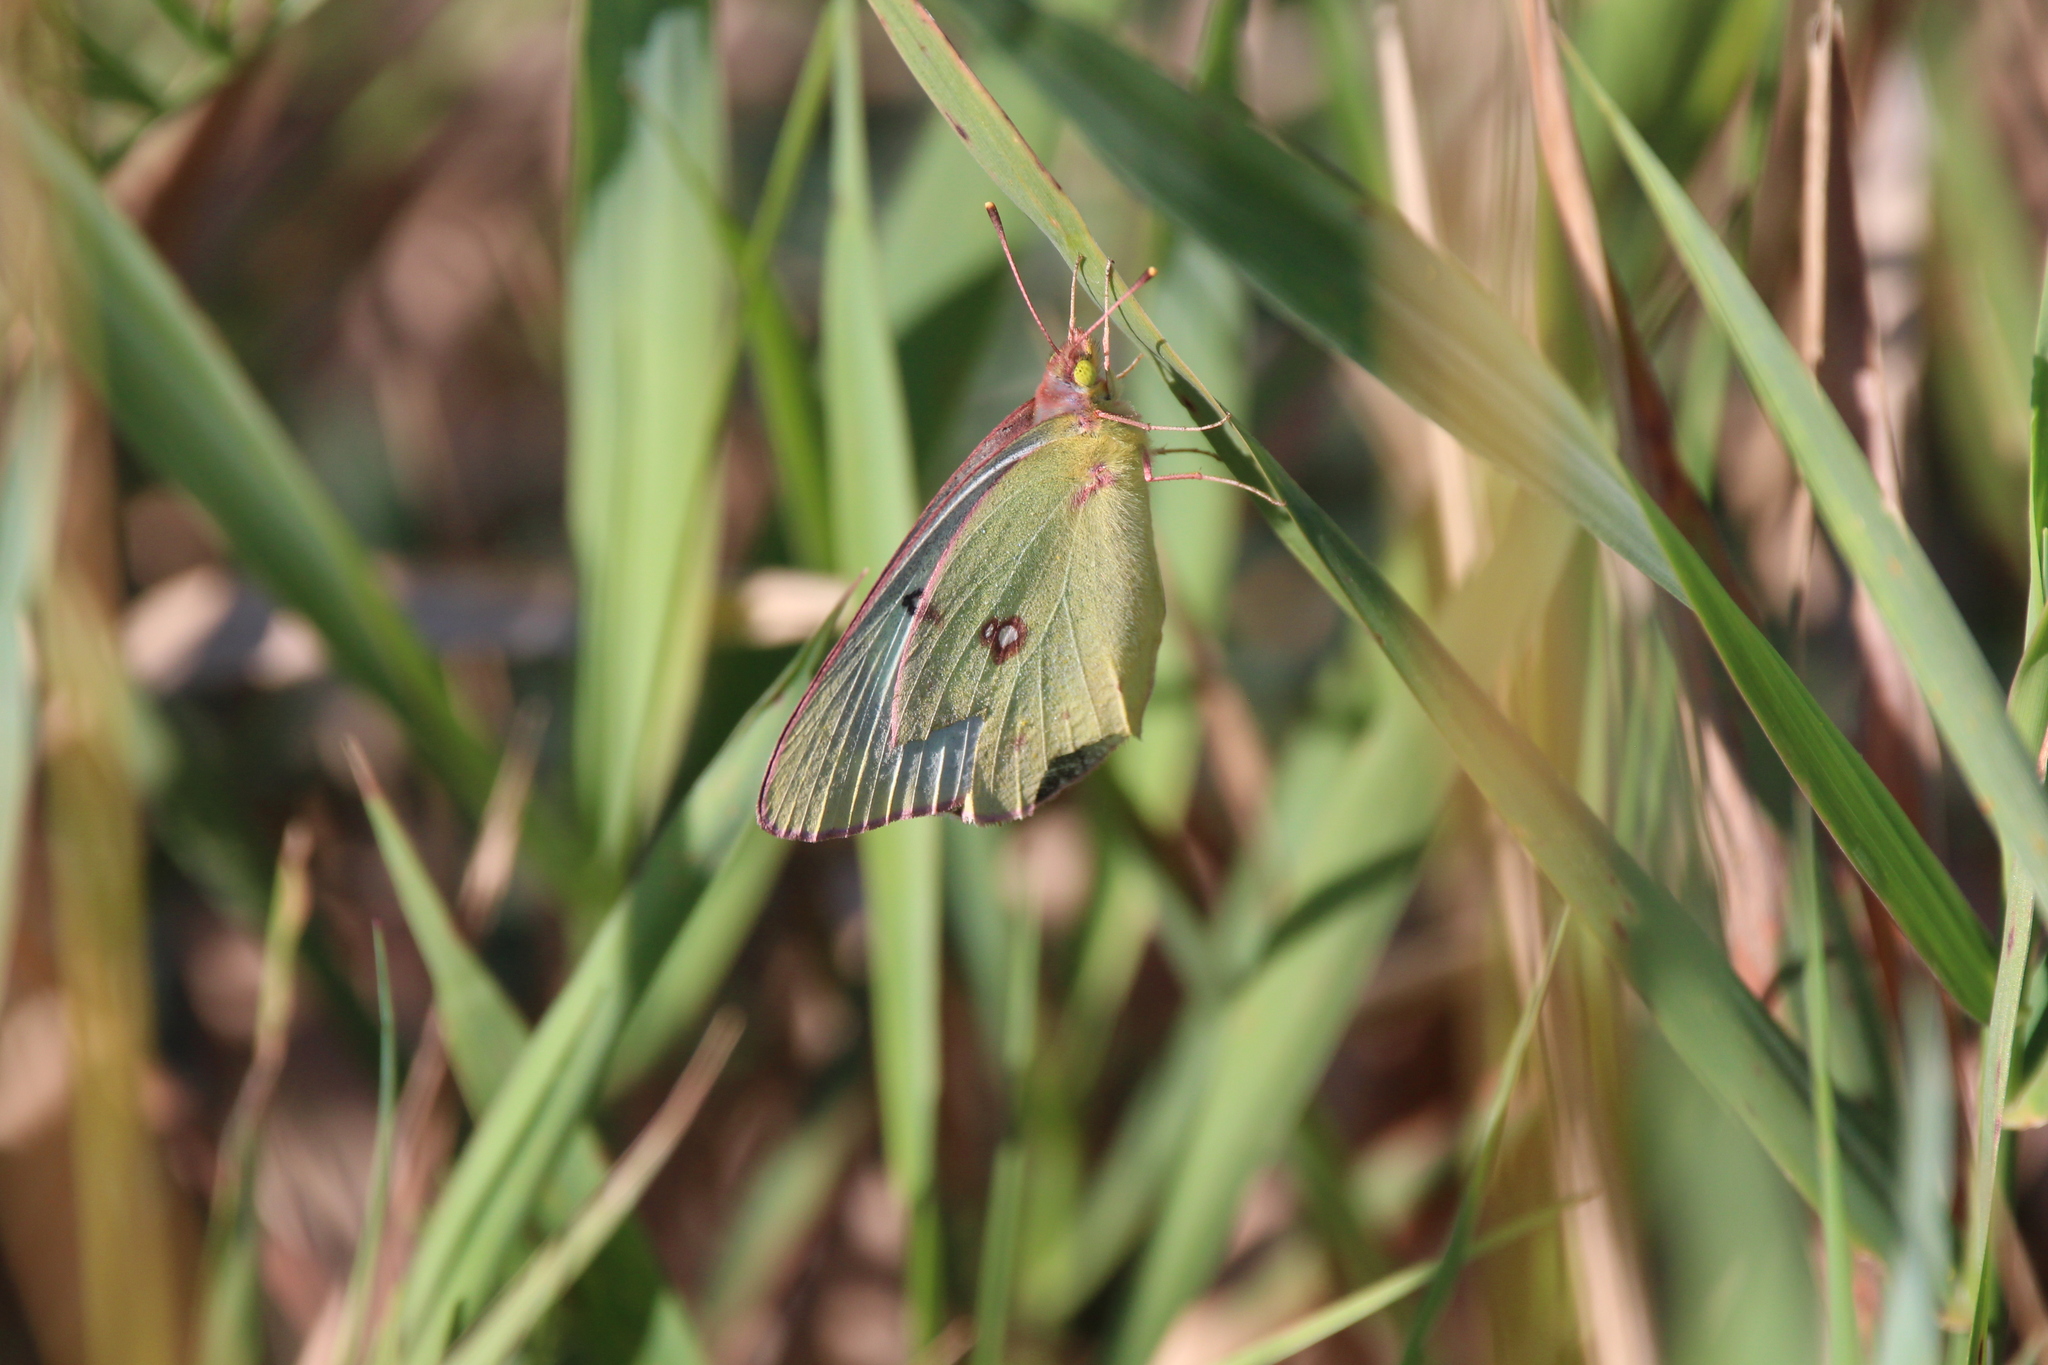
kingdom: Animalia
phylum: Arthropoda
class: Insecta
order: Lepidoptera
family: Pieridae
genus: Colias
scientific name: Colias philodice
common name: Clouded sulphur
